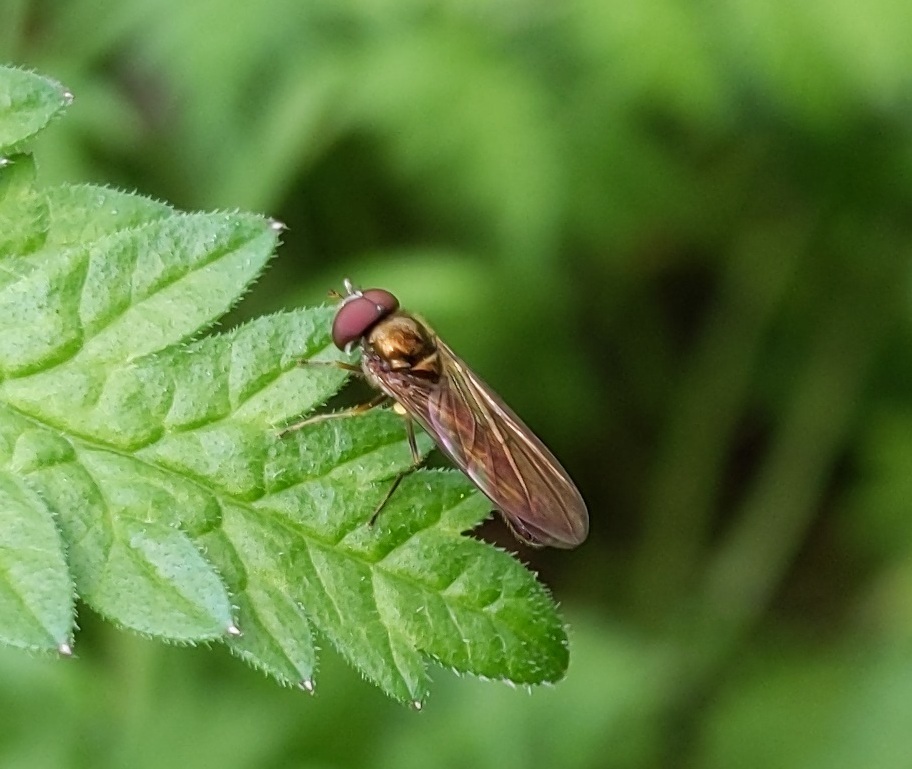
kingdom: Animalia
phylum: Arthropoda
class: Insecta
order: Diptera
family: Syrphidae
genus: Melanostoma
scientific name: Melanostoma scalare
